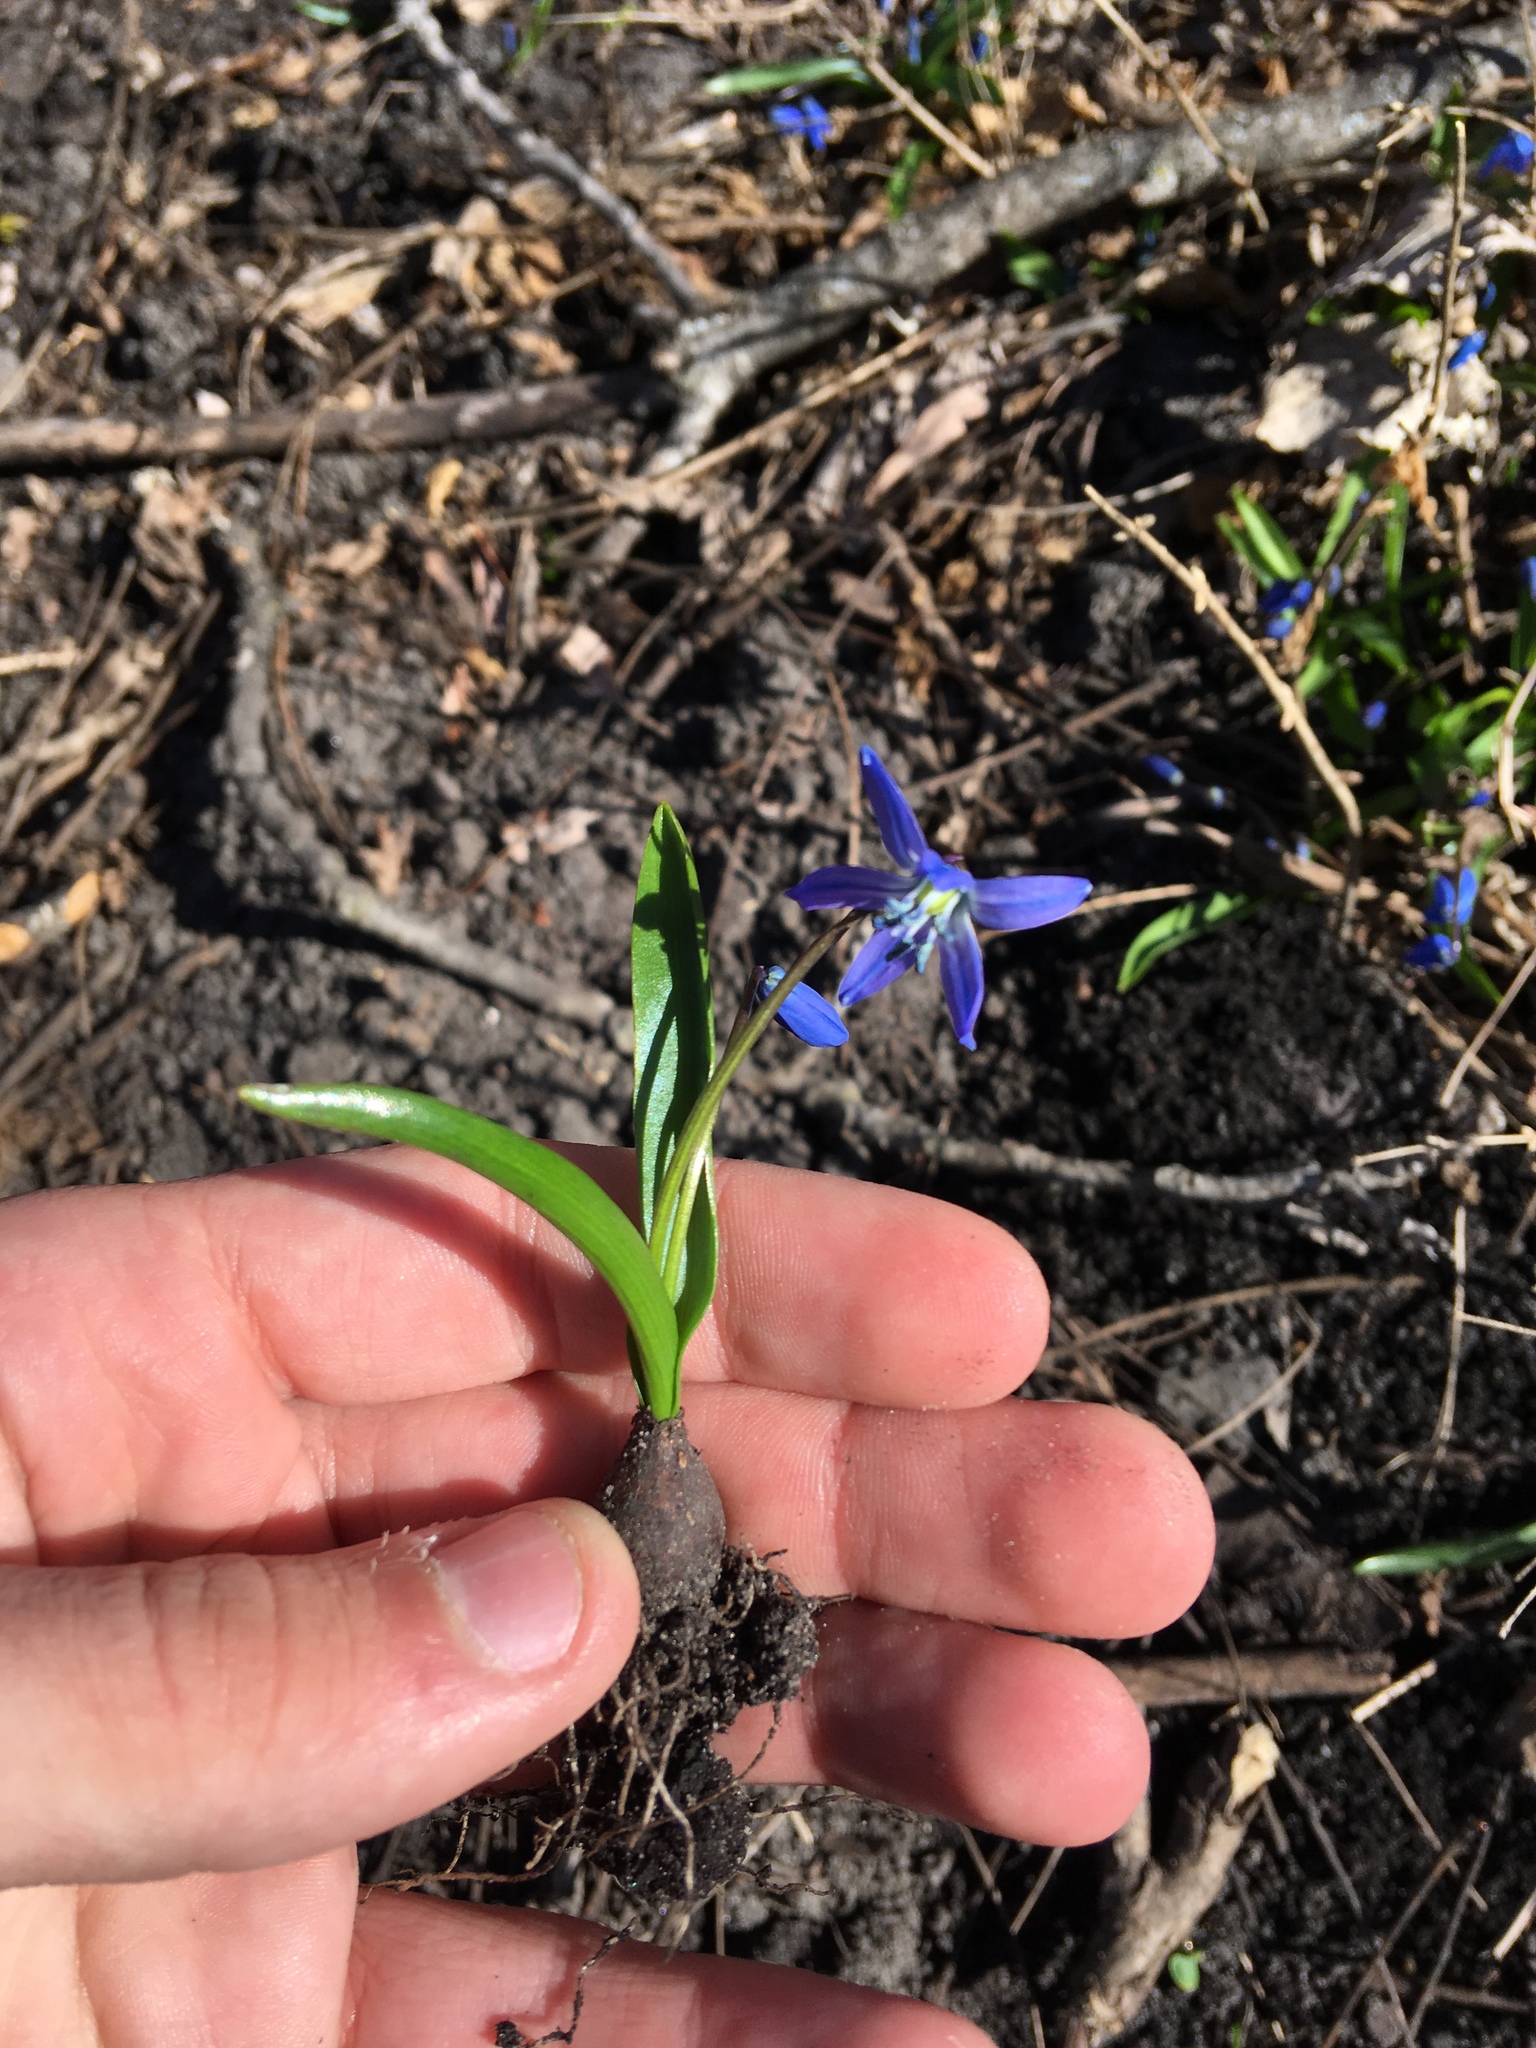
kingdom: Plantae
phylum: Tracheophyta
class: Liliopsida
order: Asparagales
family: Asparagaceae
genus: Scilla
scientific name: Scilla siberica
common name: Siberian squill
